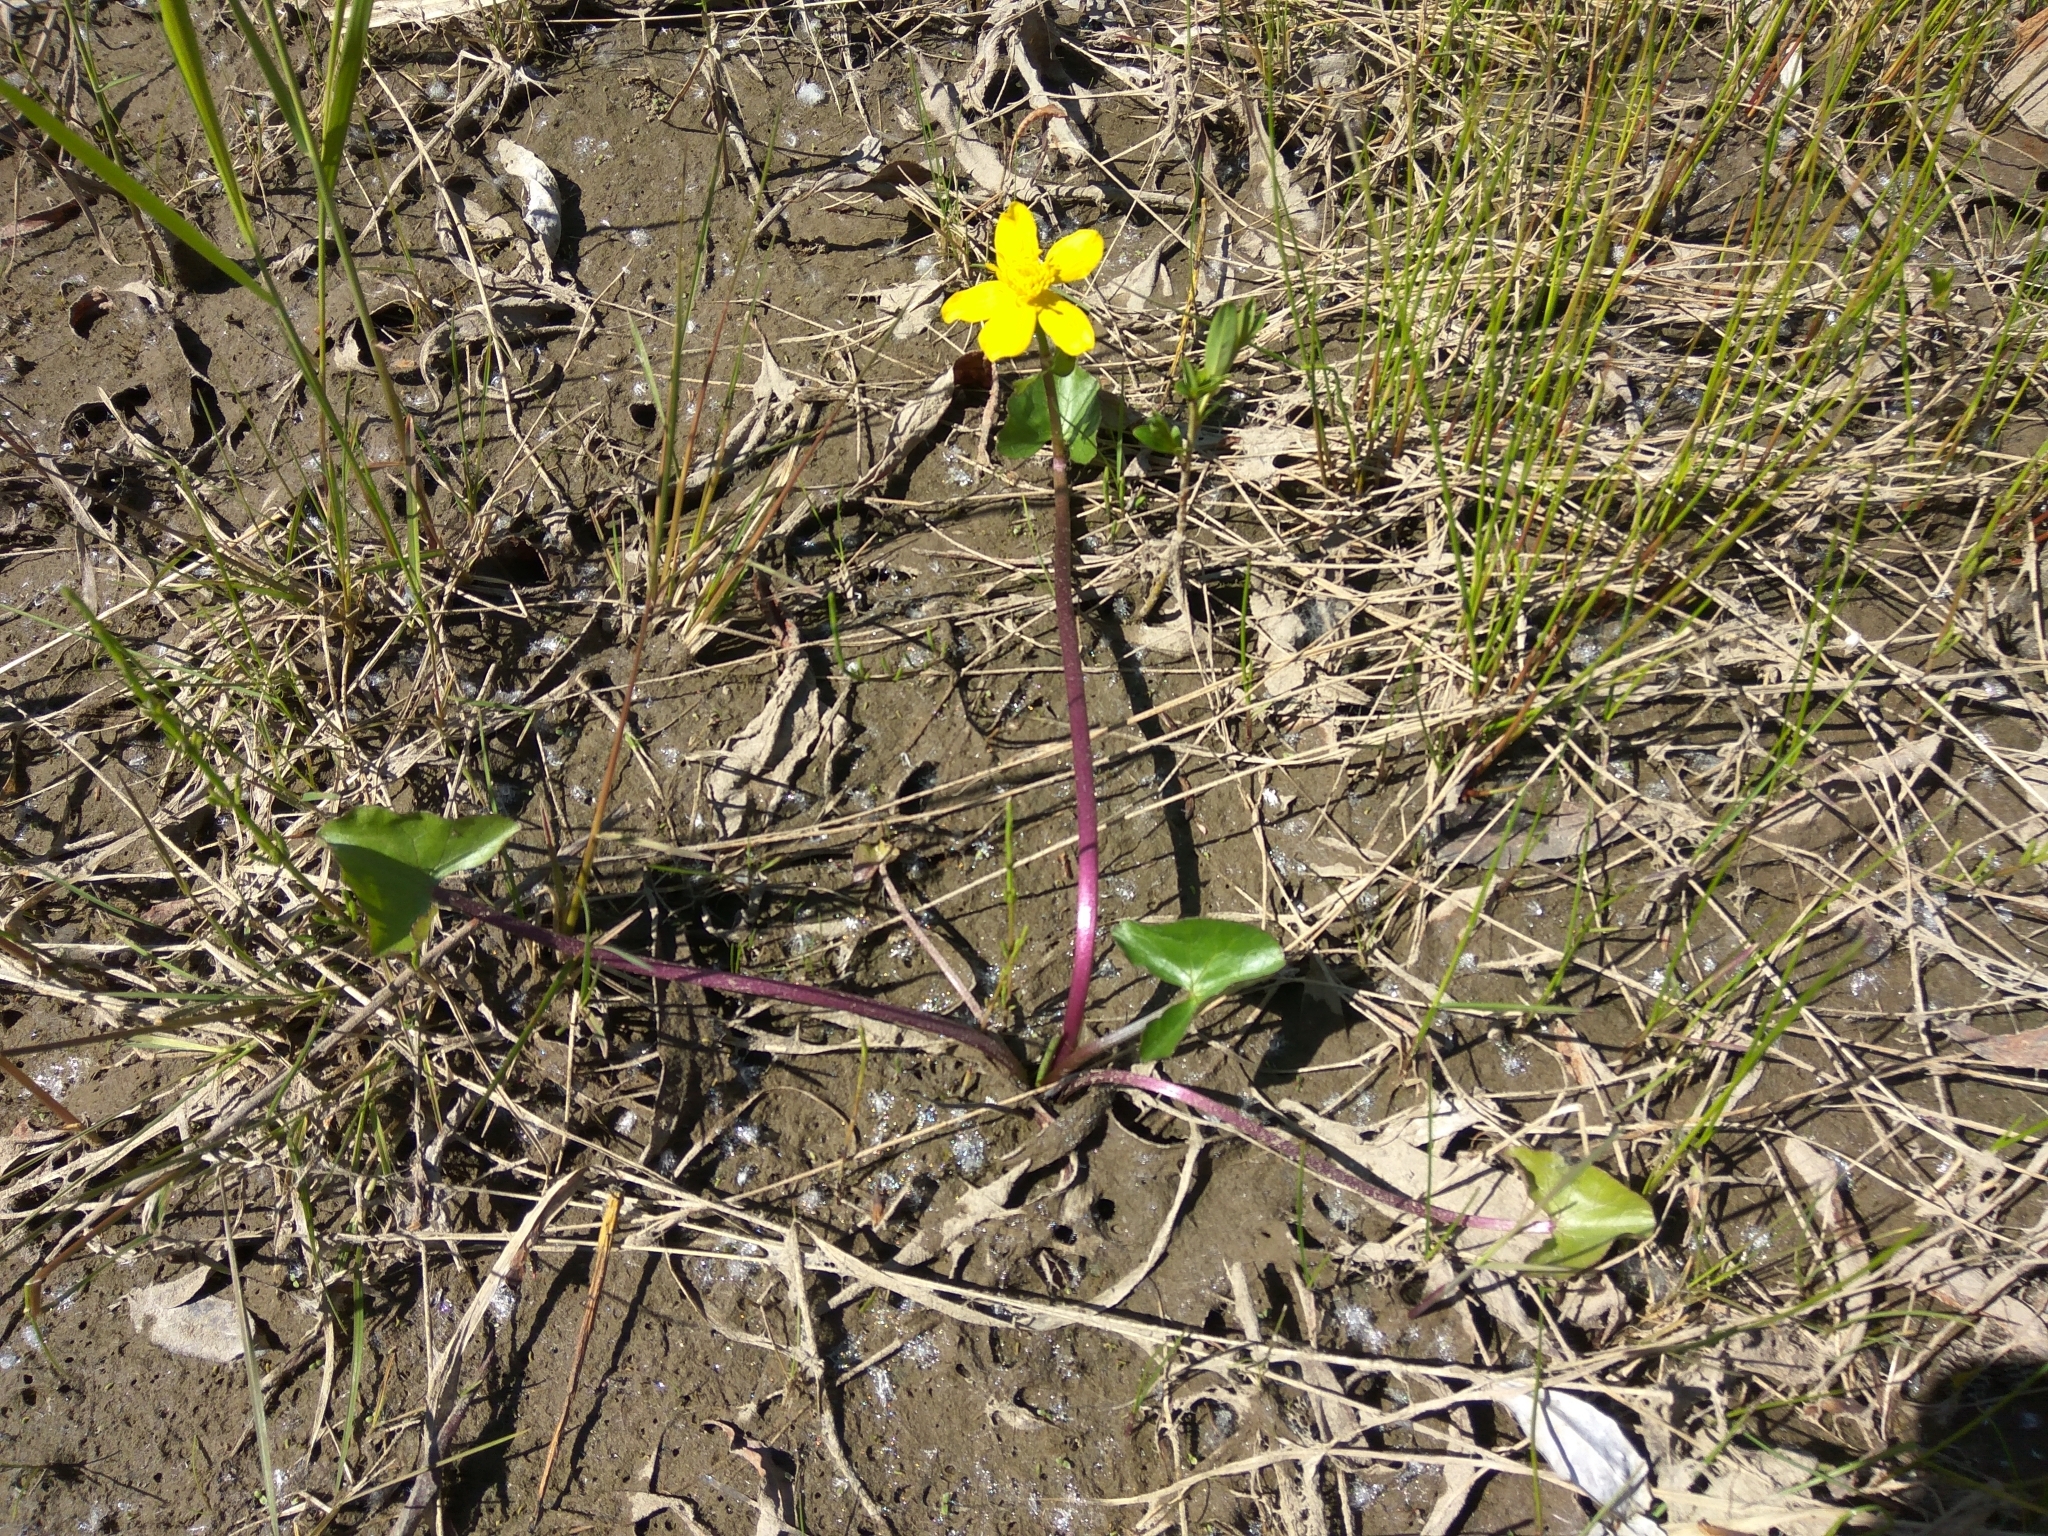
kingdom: Plantae
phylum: Tracheophyta
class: Magnoliopsida
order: Ranunculales
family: Ranunculaceae
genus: Caltha
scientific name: Caltha palustris
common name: Marsh marigold
